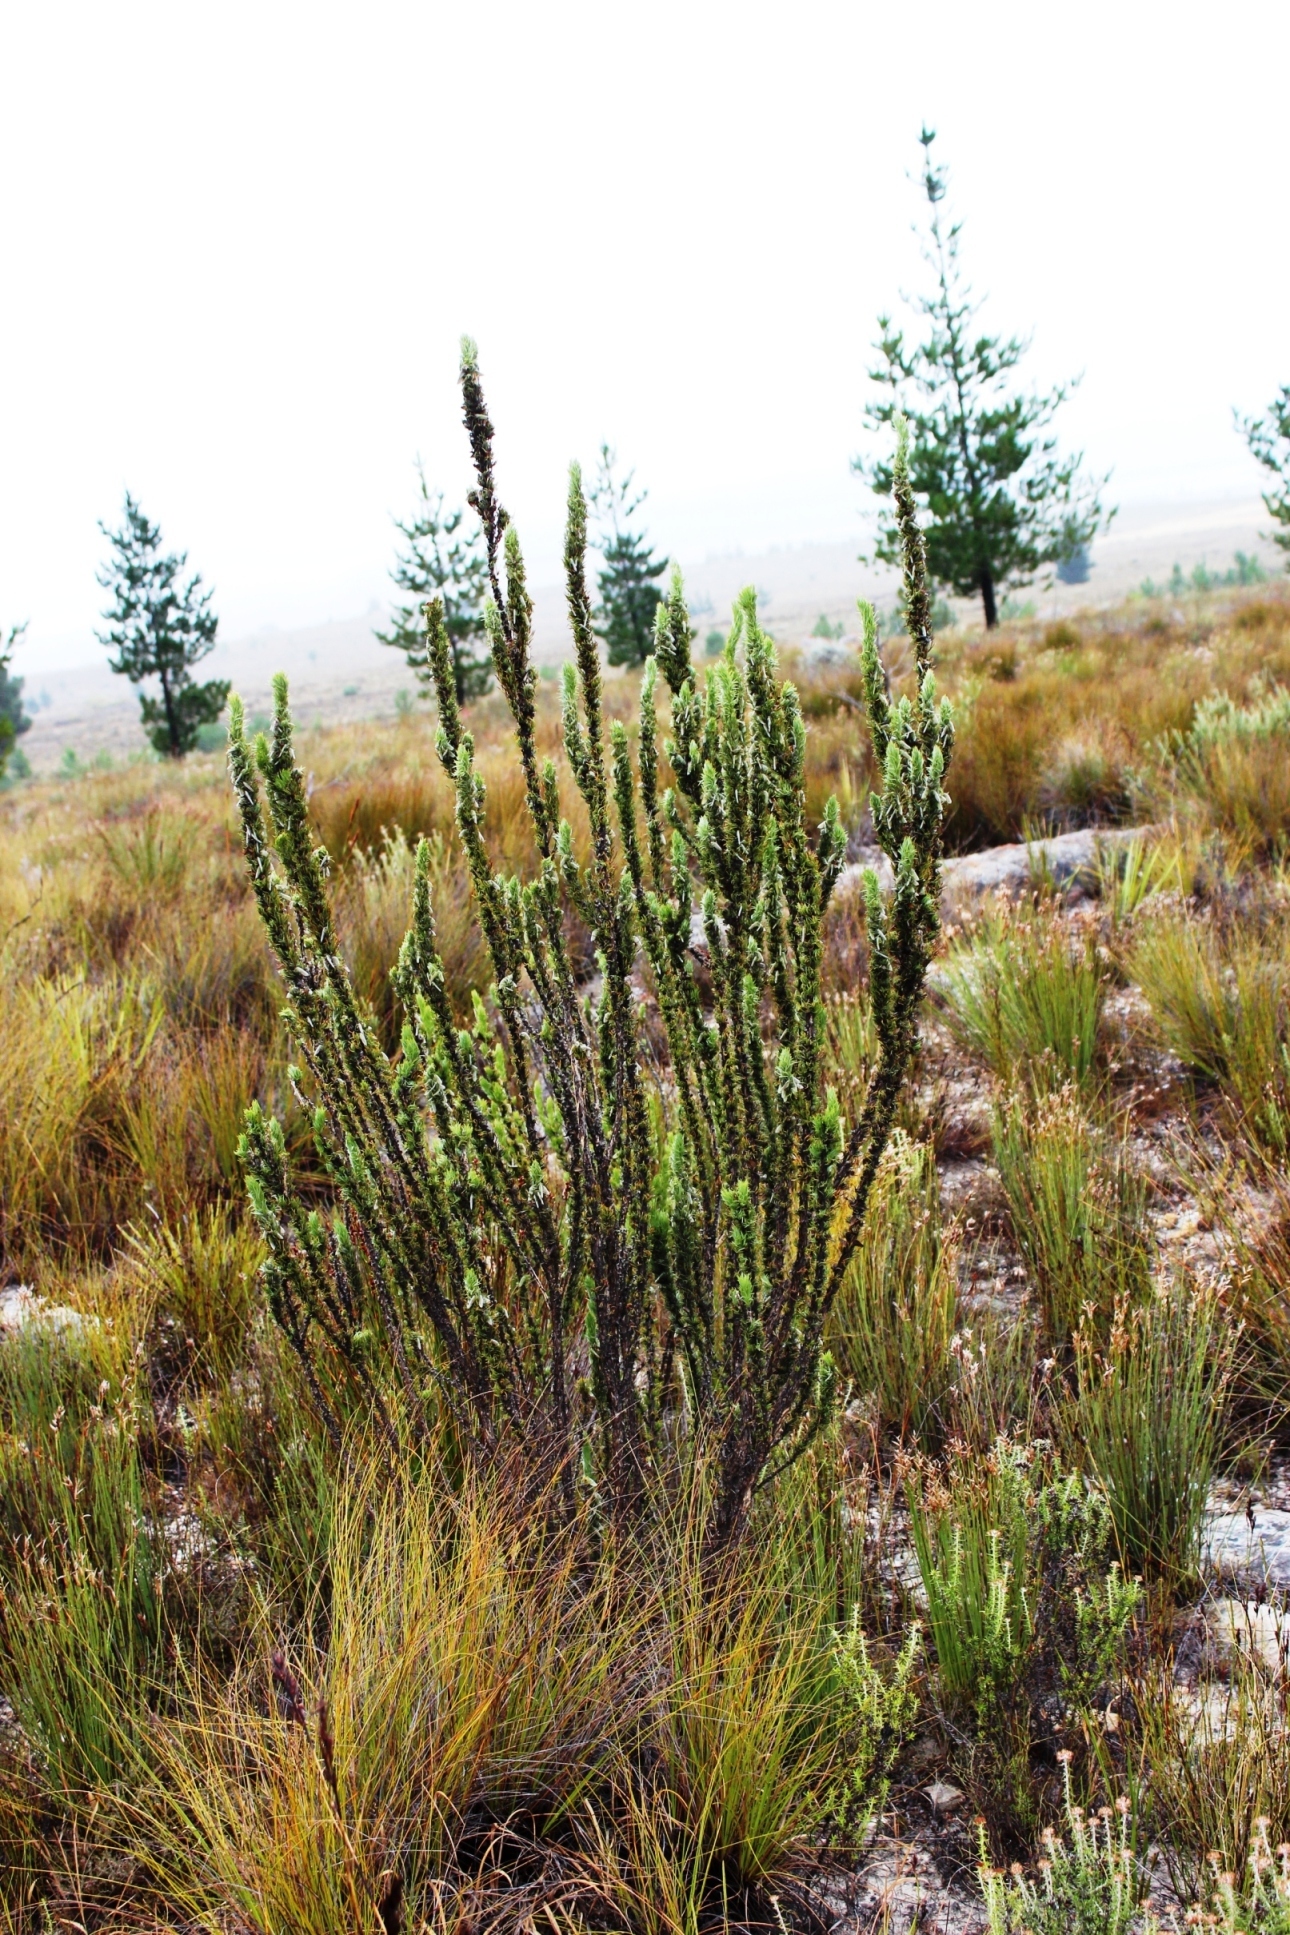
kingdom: Plantae
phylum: Tracheophyta
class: Magnoliopsida
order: Fabales
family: Fabaceae
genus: Aspalathus
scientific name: Aspalathus shawii
